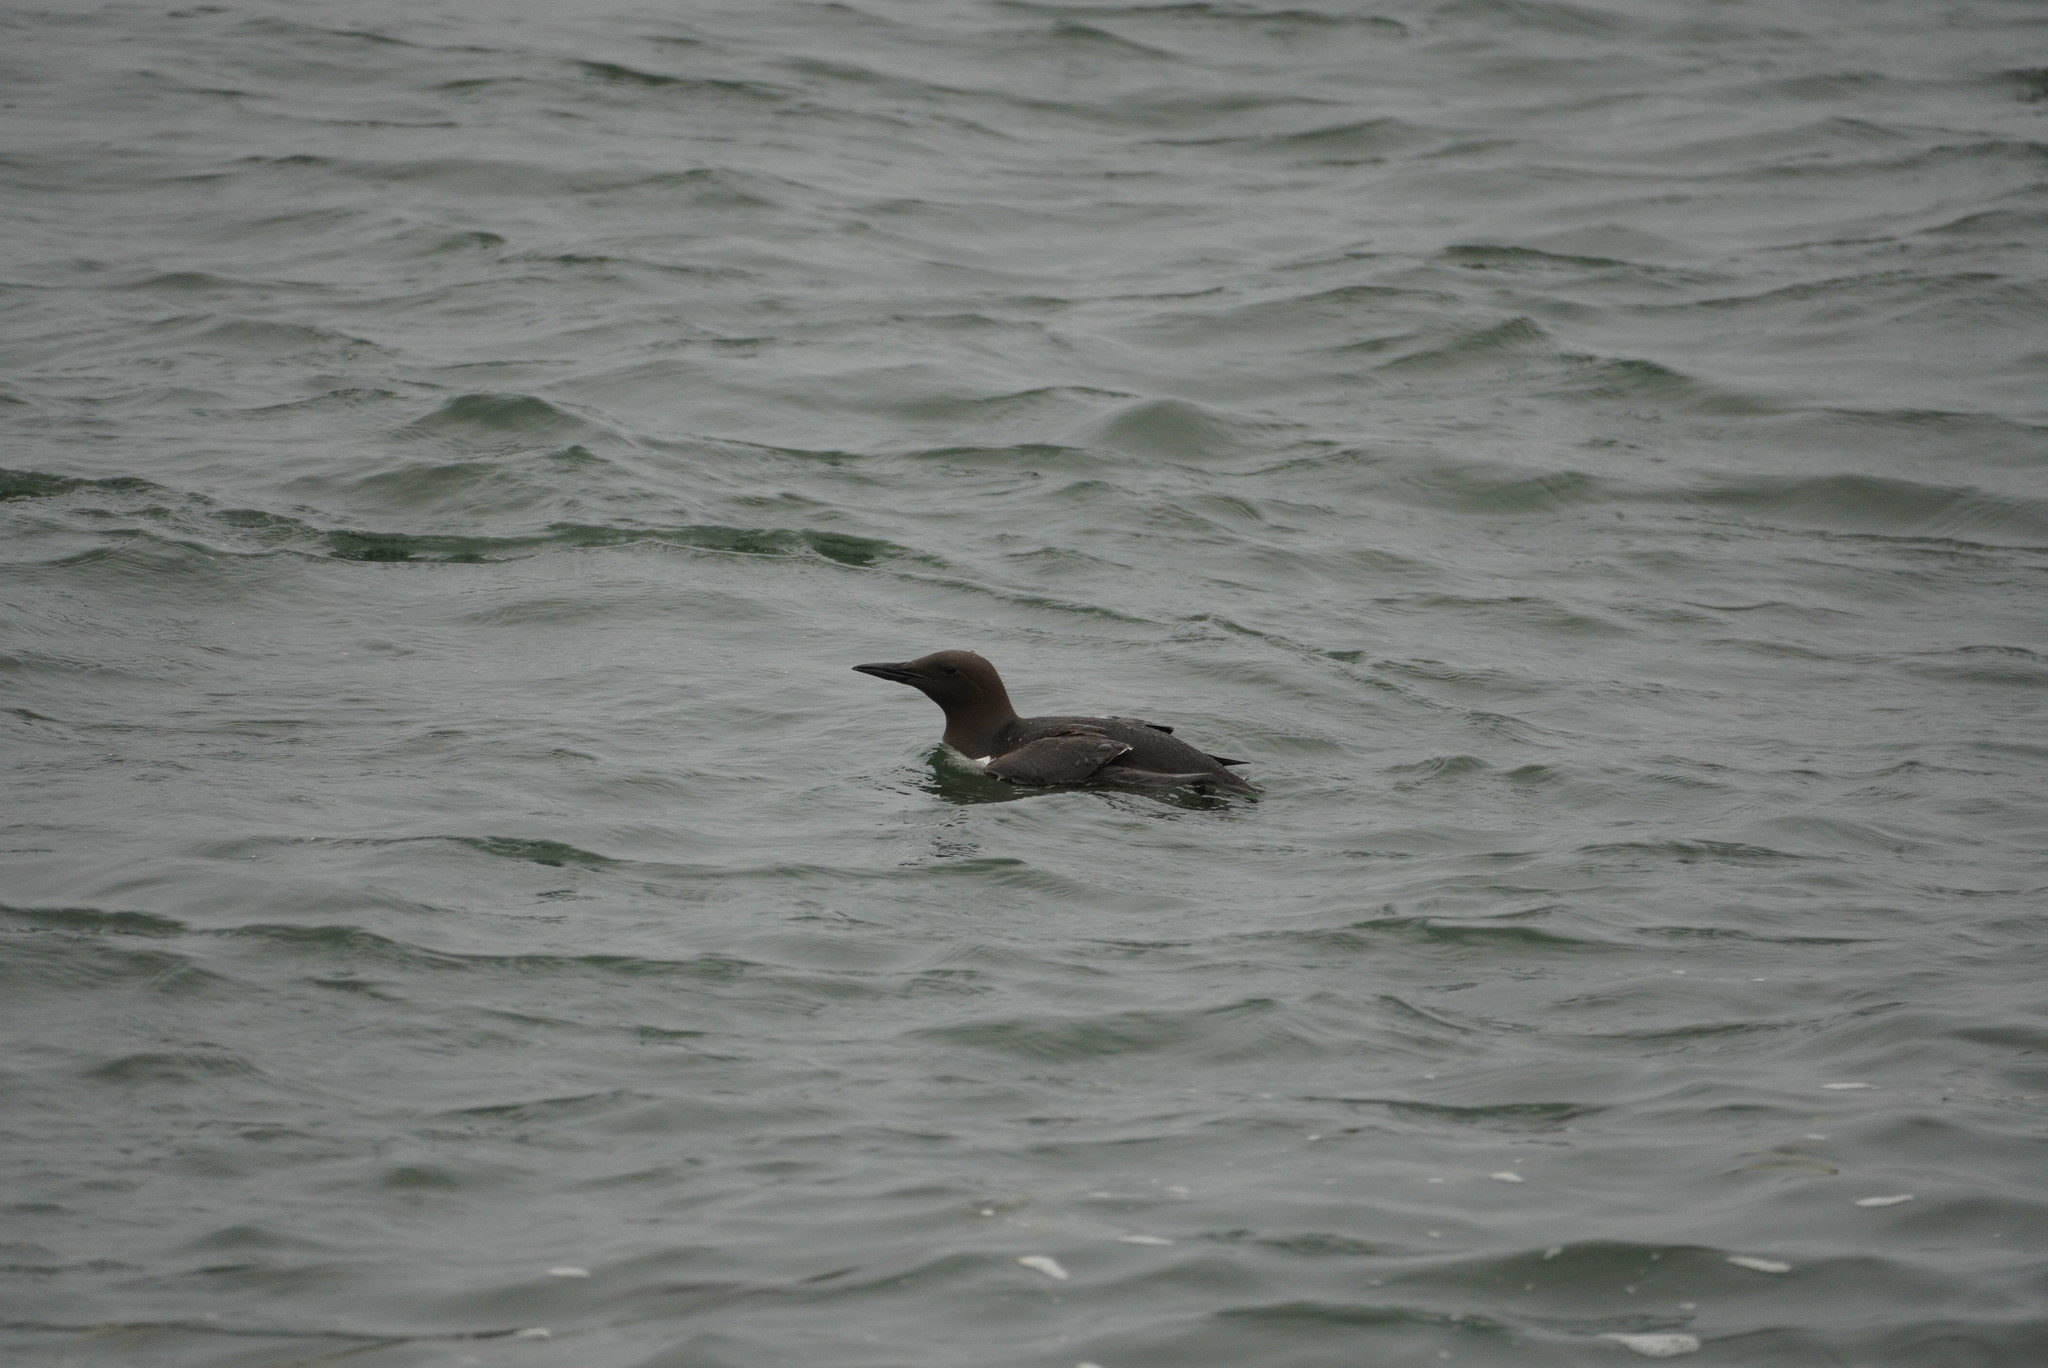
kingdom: Animalia
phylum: Chordata
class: Aves
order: Charadriiformes
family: Alcidae
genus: Uria
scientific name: Uria aalge
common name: Common murre
